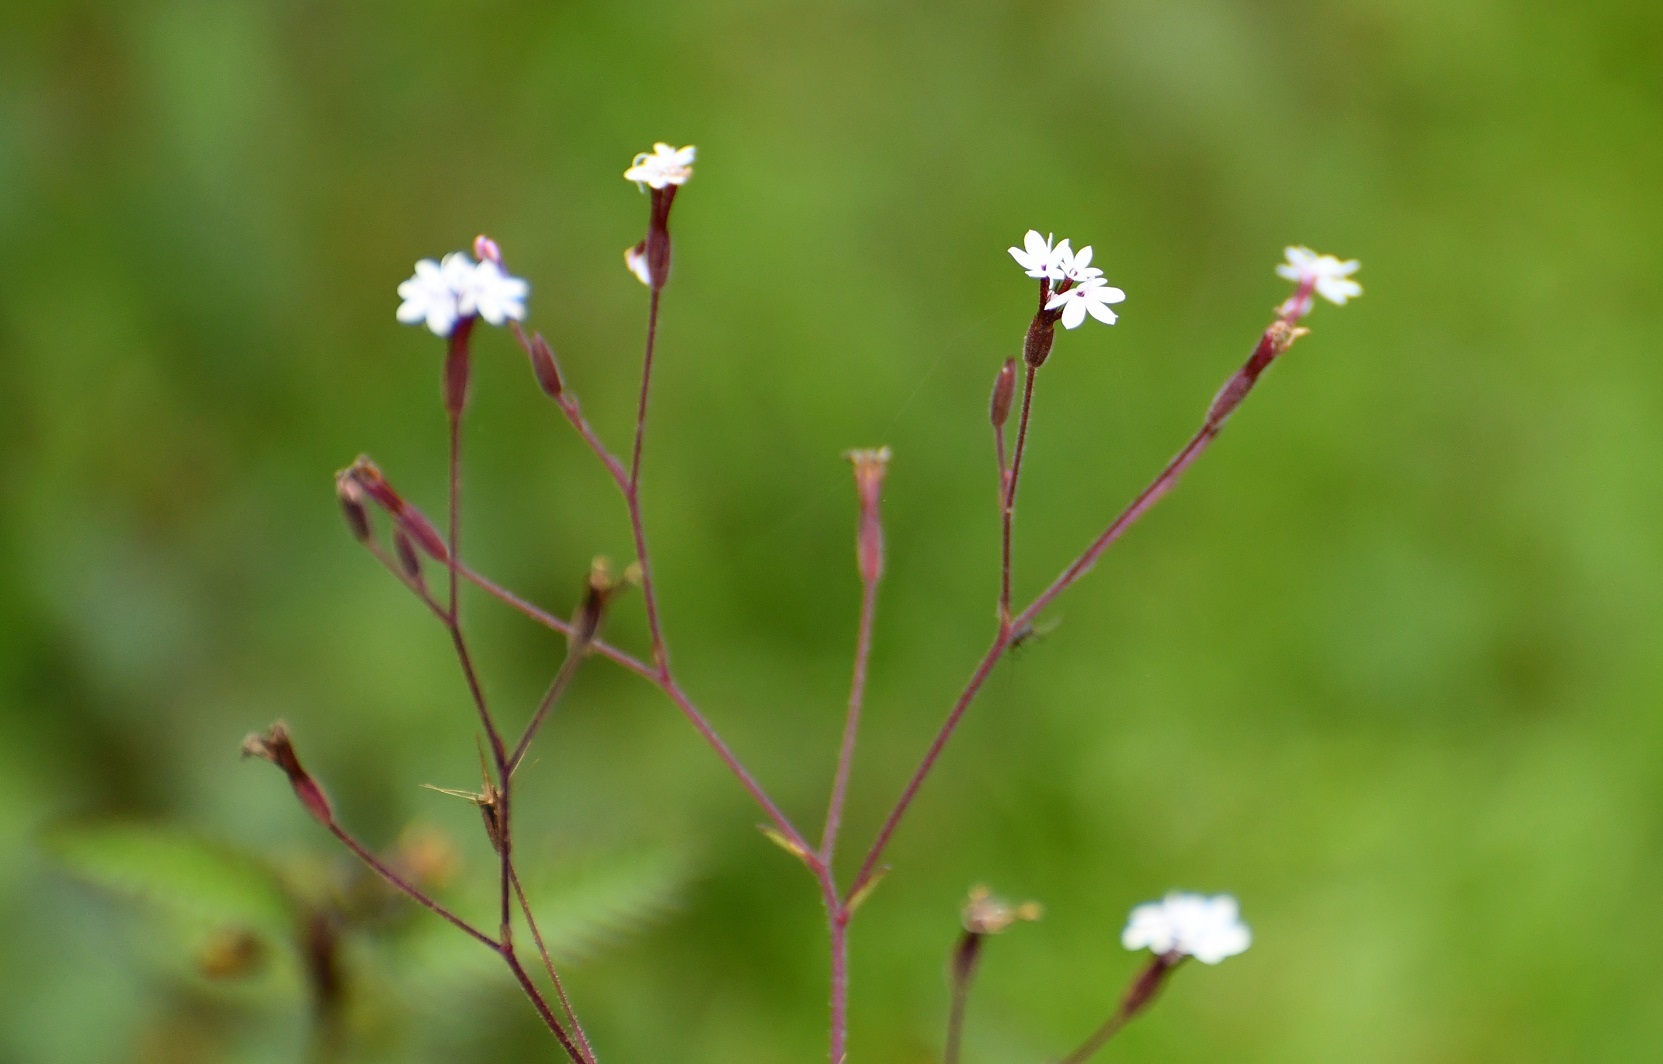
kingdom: Plantae
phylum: Tracheophyta
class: Magnoliopsida
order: Asterales
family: Asteraceae
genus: Stevia
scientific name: Stevia elatior
